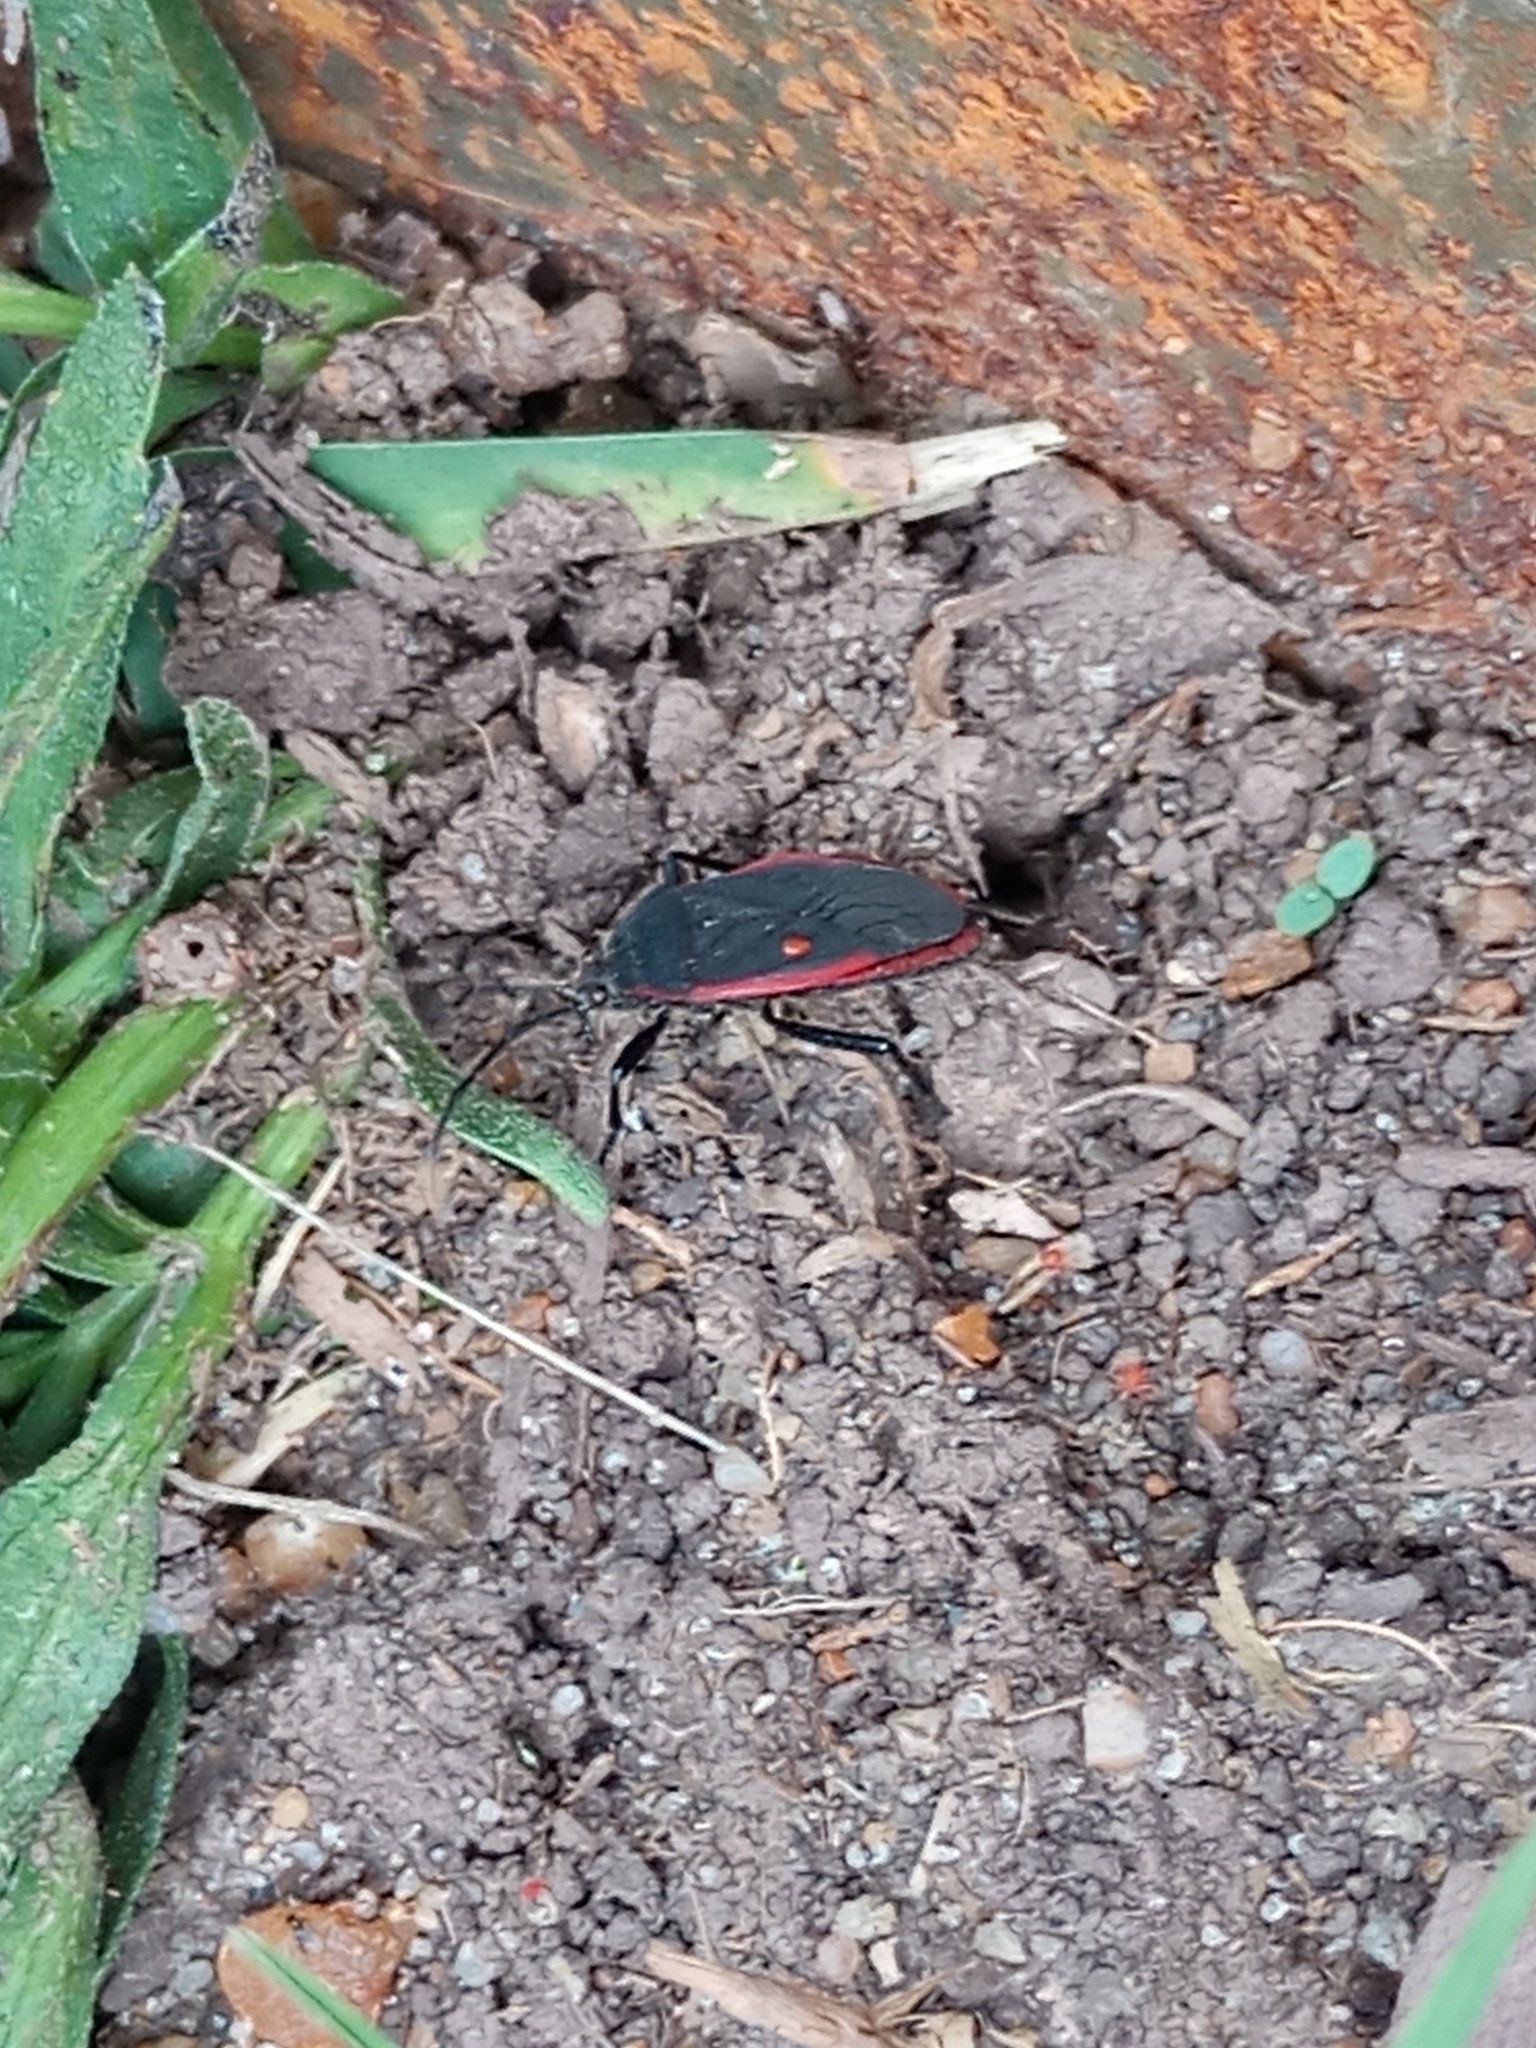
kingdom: Animalia
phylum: Arthropoda
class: Insecta
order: Hemiptera
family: Largidae
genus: Largus
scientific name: Largus rufipennis
